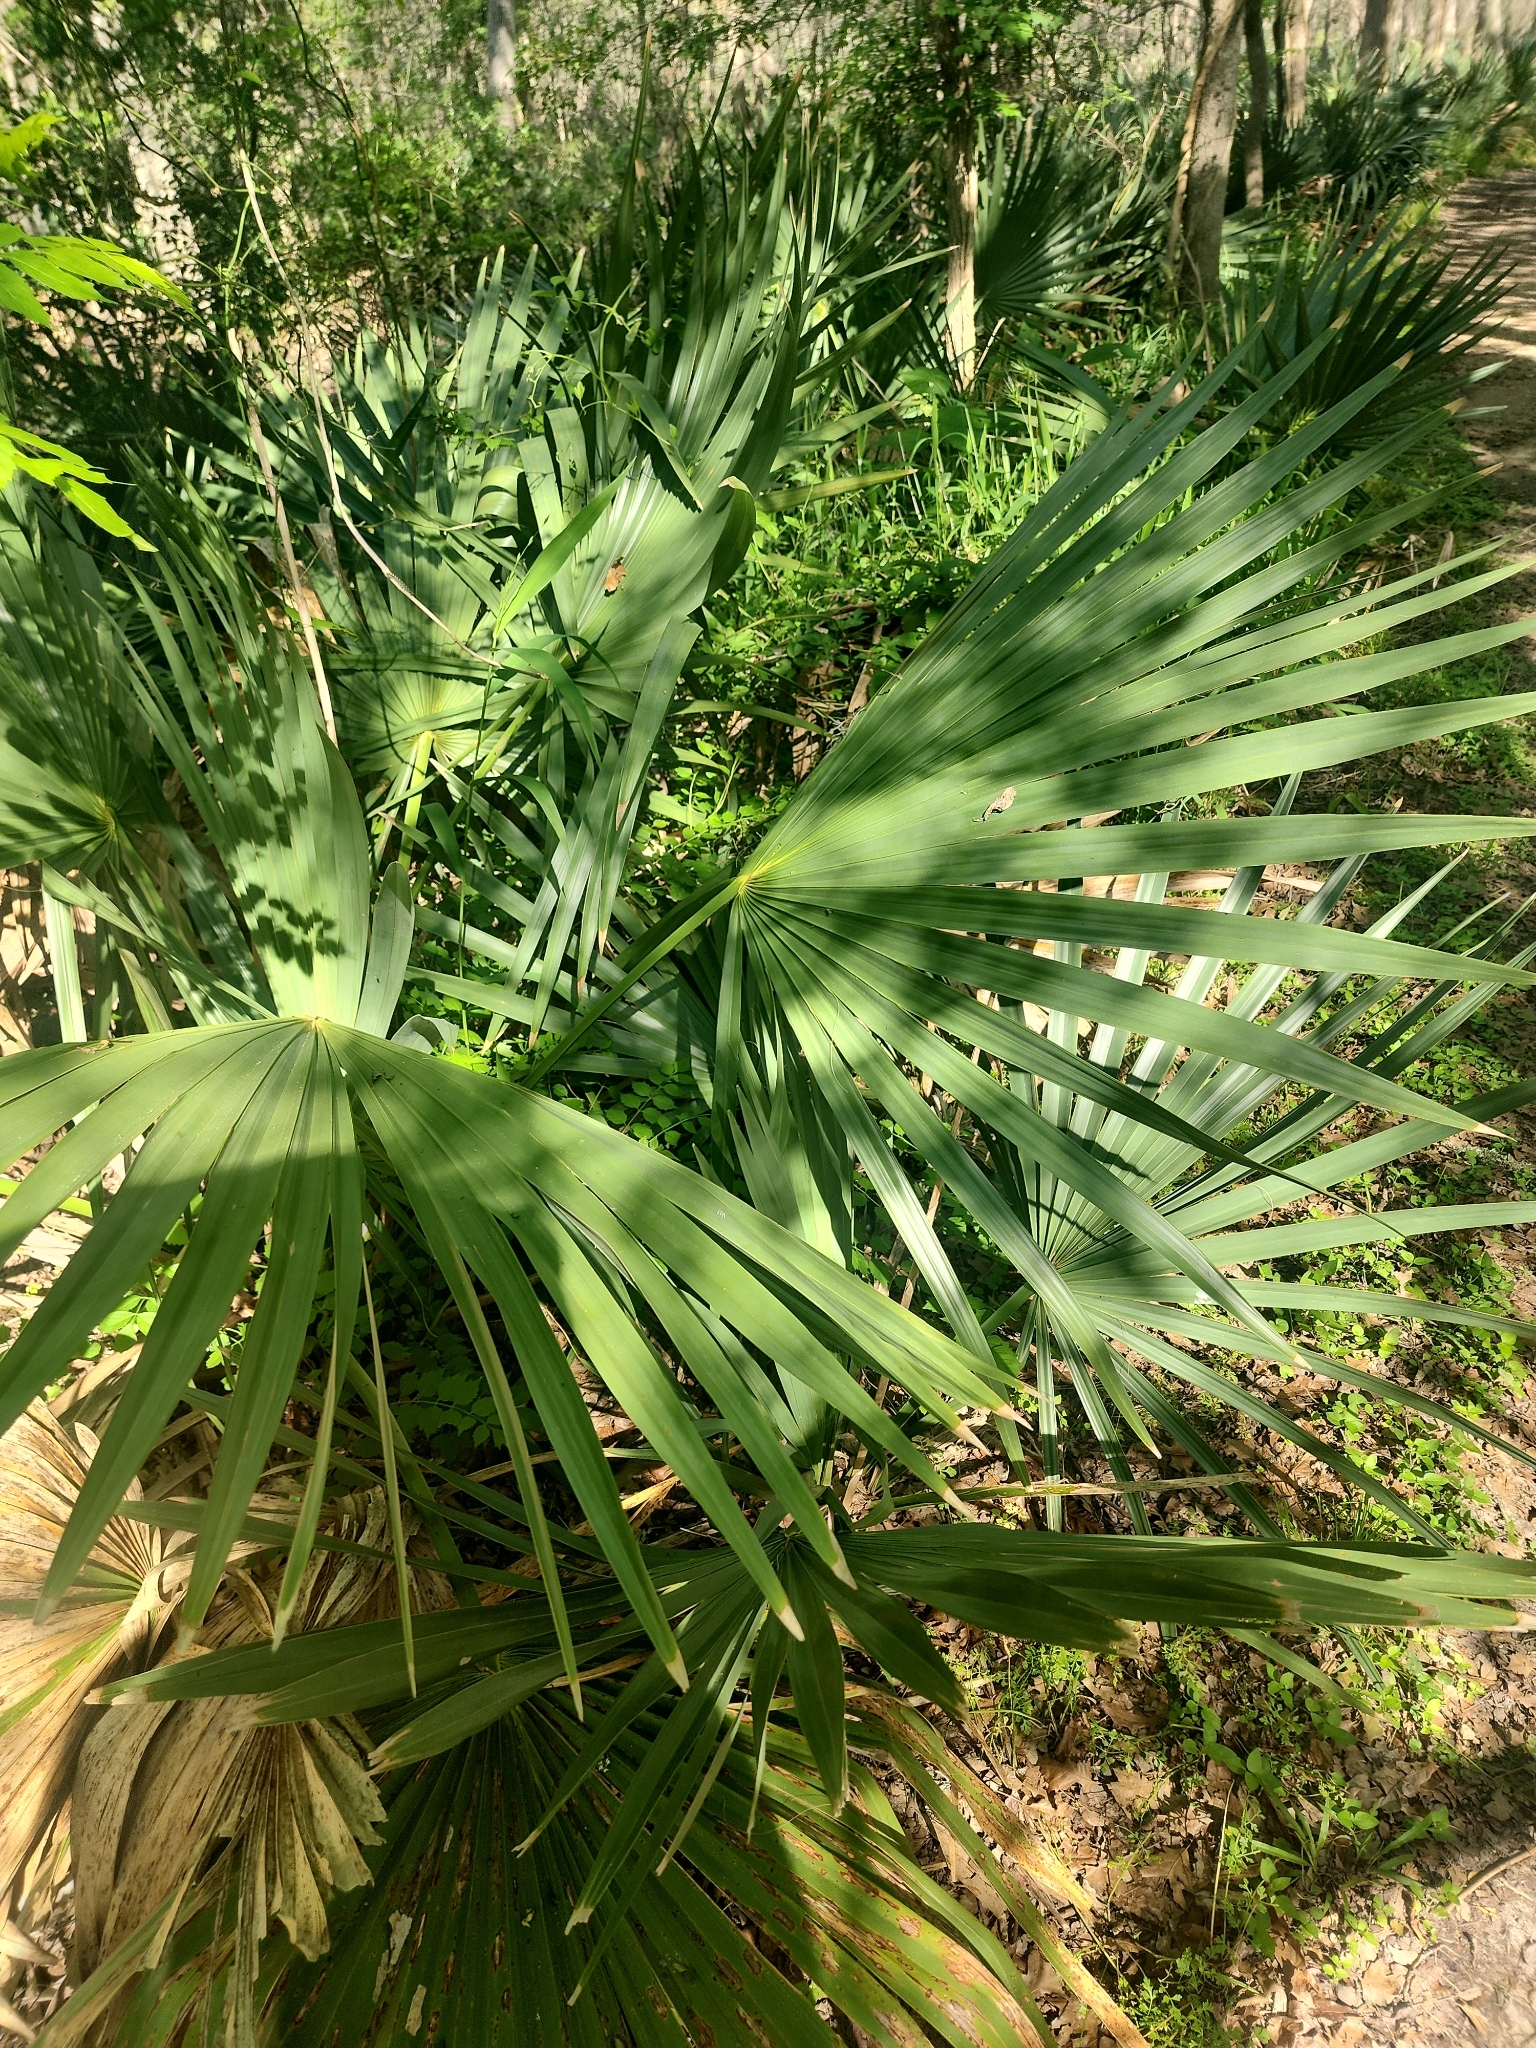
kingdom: Plantae
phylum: Tracheophyta
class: Liliopsida
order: Arecales
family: Arecaceae
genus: Sabal
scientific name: Sabal minor
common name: Dwarf palmetto
